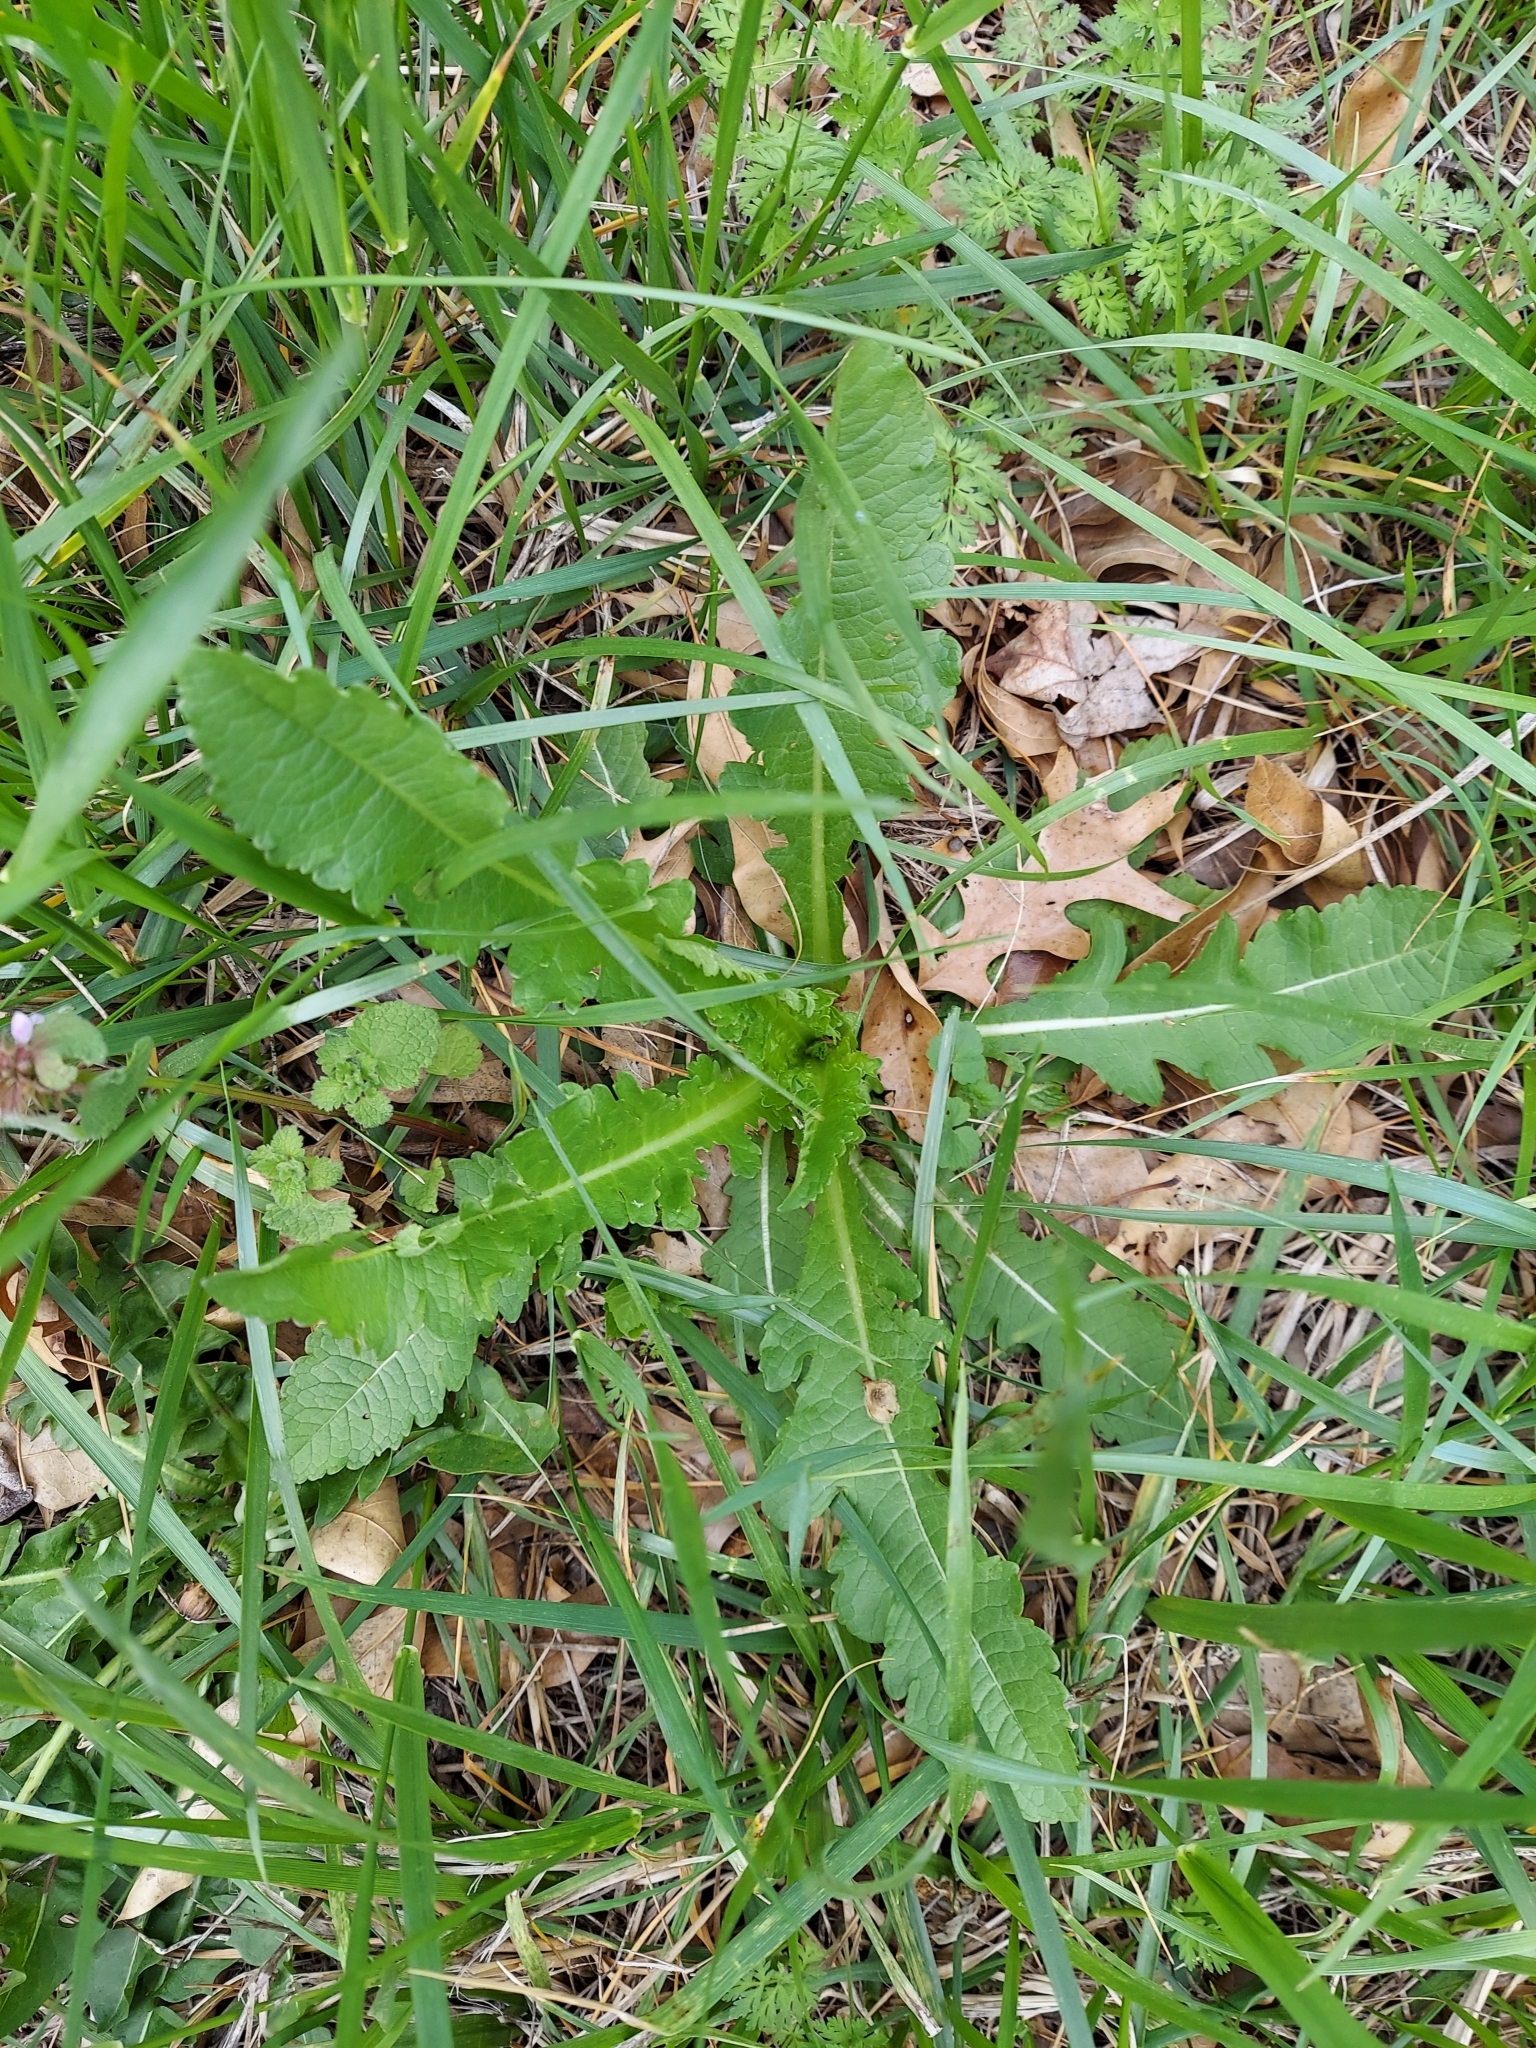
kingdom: Plantae
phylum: Tracheophyta
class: Magnoliopsida
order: Dipsacales
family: Caprifoliaceae
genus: Dipsacus
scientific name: Dipsacus laciniatus
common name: Cut-leaved teasel
